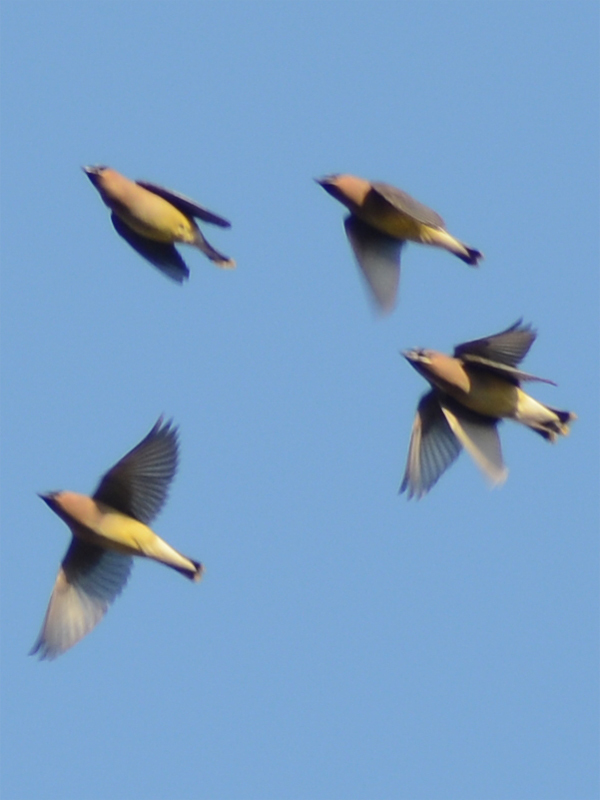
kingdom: Animalia
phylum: Chordata
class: Aves
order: Passeriformes
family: Bombycillidae
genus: Bombycilla
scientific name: Bombycilla cedrorum
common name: Cedar waxwing
